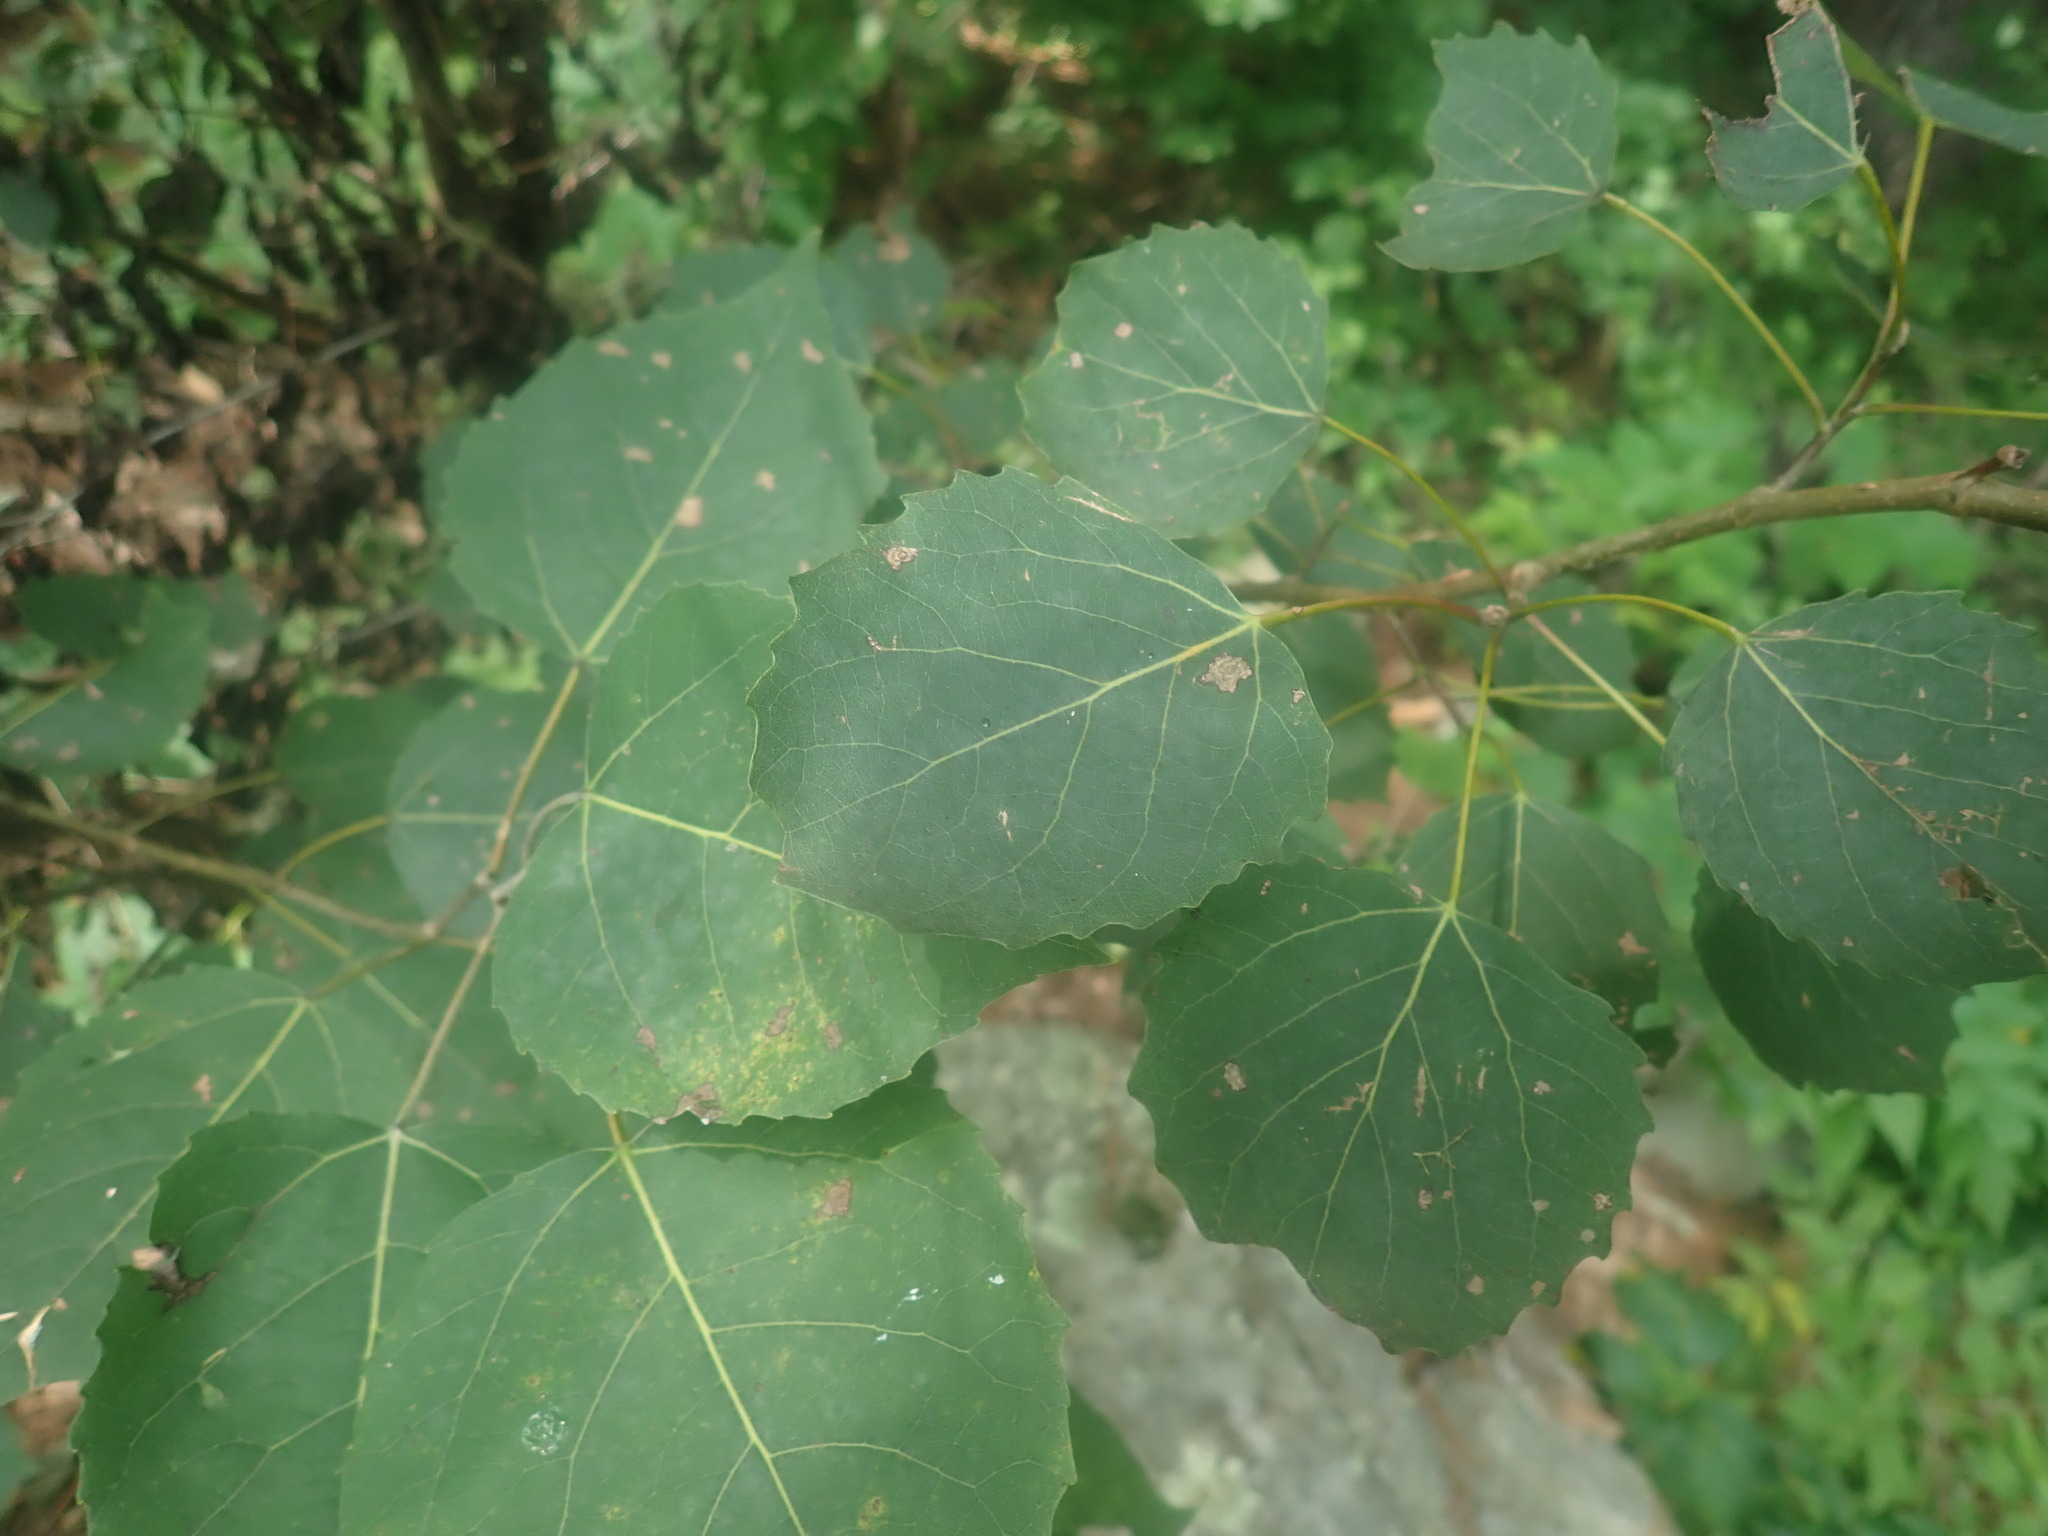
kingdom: Plantae
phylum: Tracheophyta
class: Magnoliopsida
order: Malpighiales
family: Salicaceae
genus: Populus
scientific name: Populus grandidentata
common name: Bigtooth aspen
